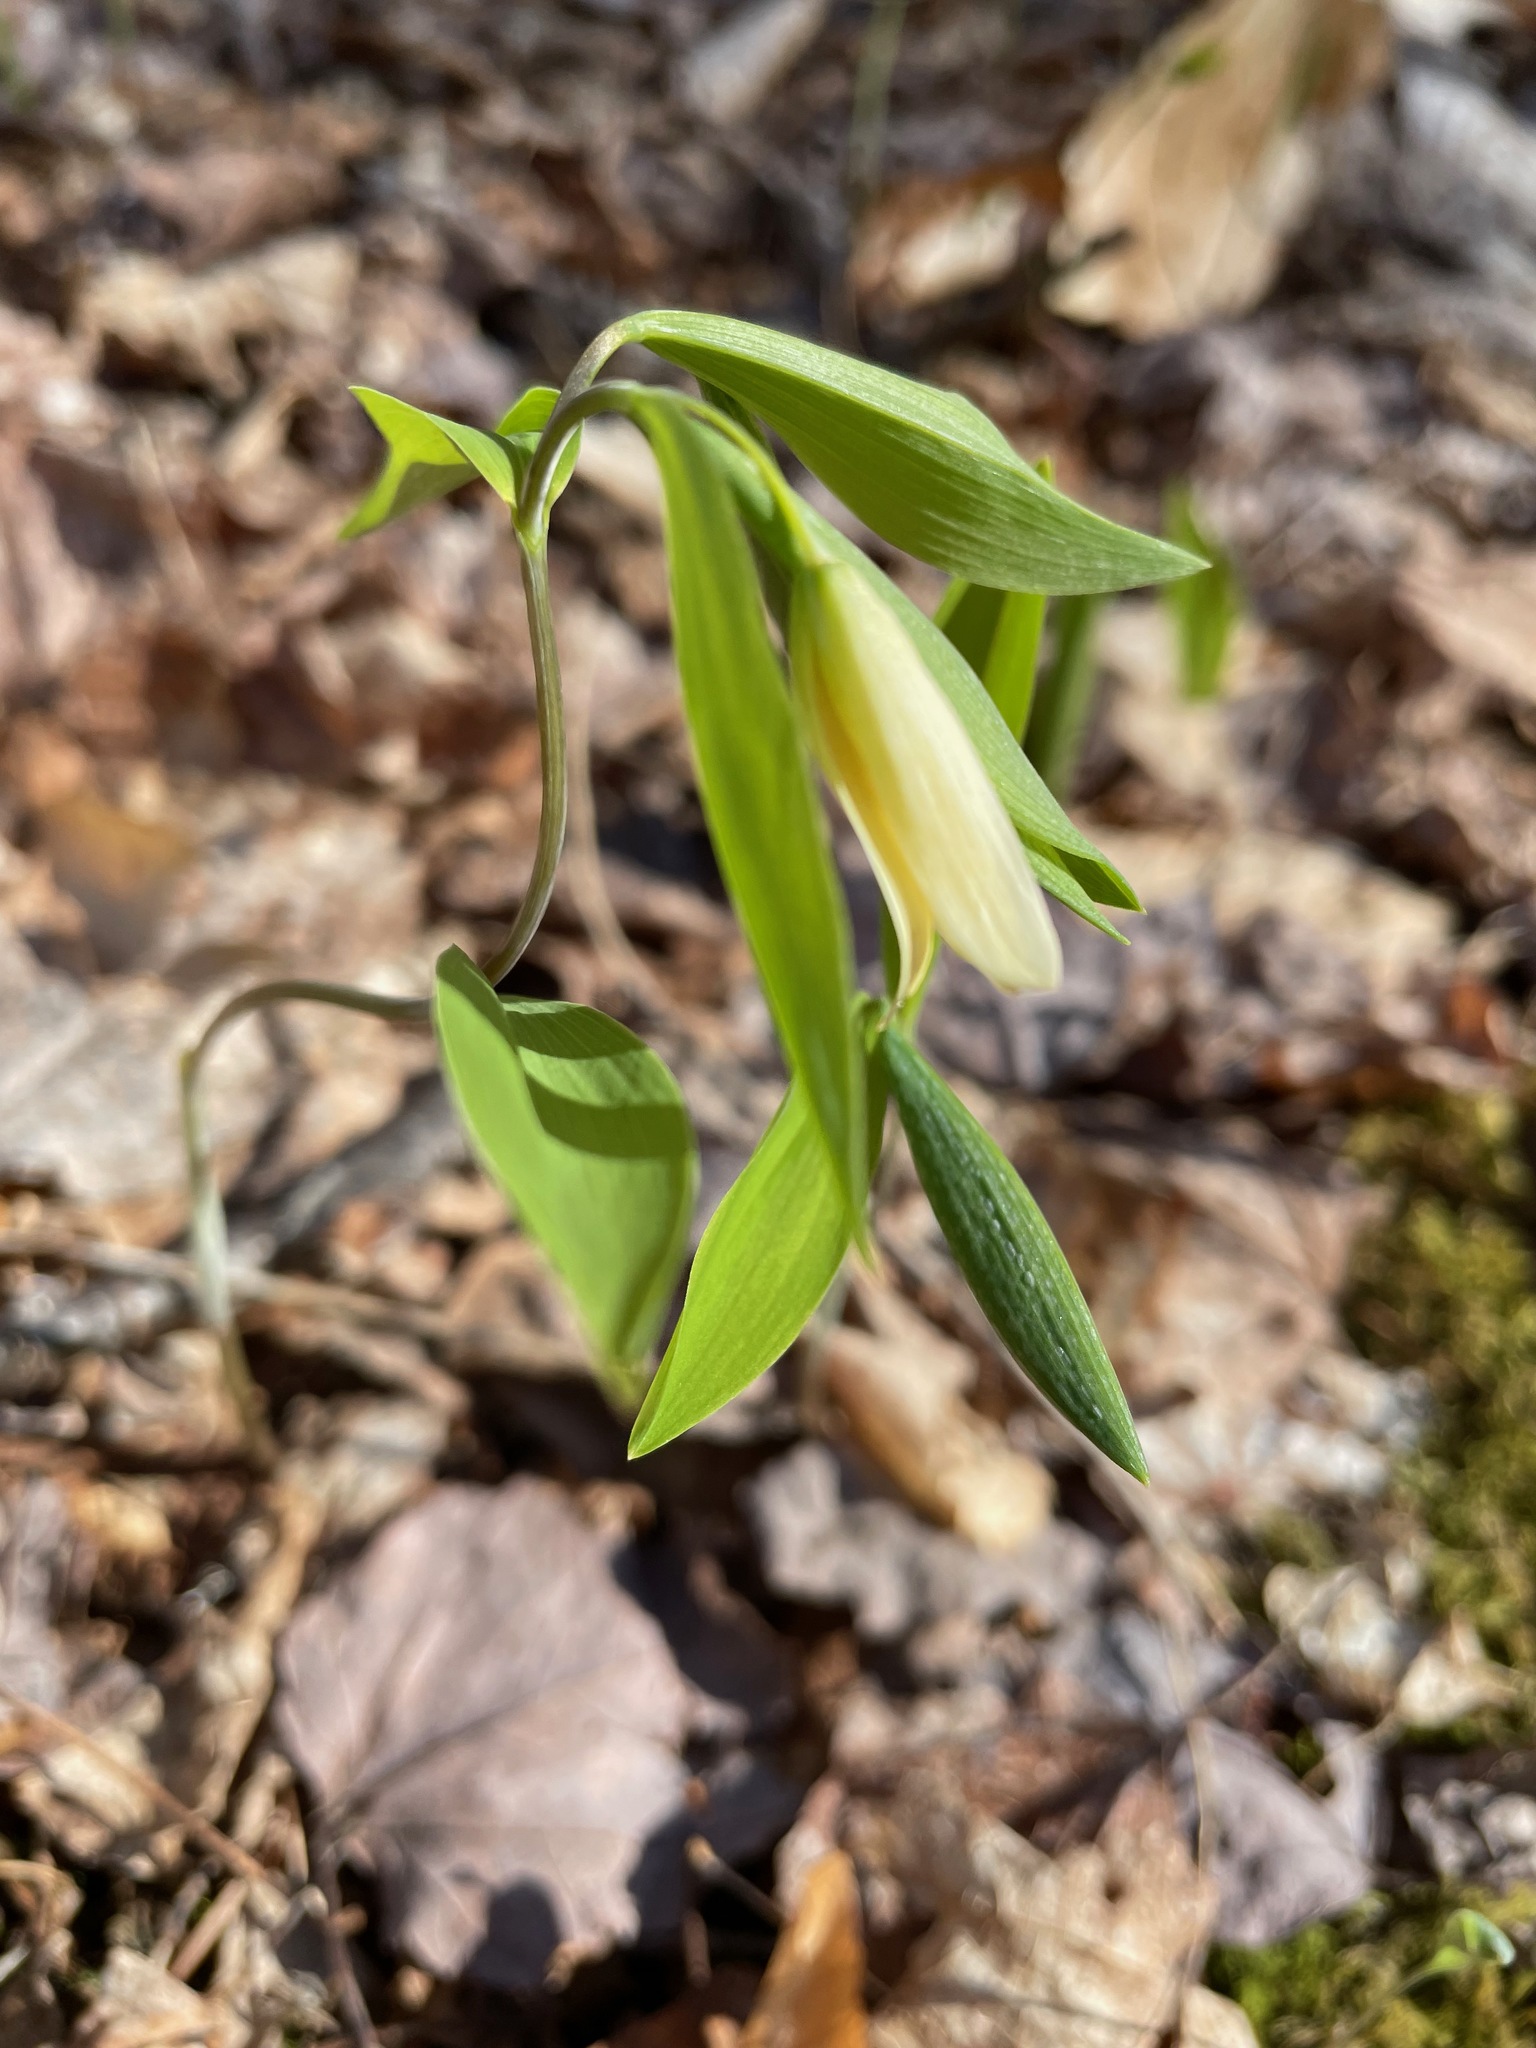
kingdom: Plantae
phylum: Tracheophyta
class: Liliopsida
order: Liliales
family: Colchicaceae
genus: Uvularia
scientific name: Uvularia sessilifolia
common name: Straw-lily
